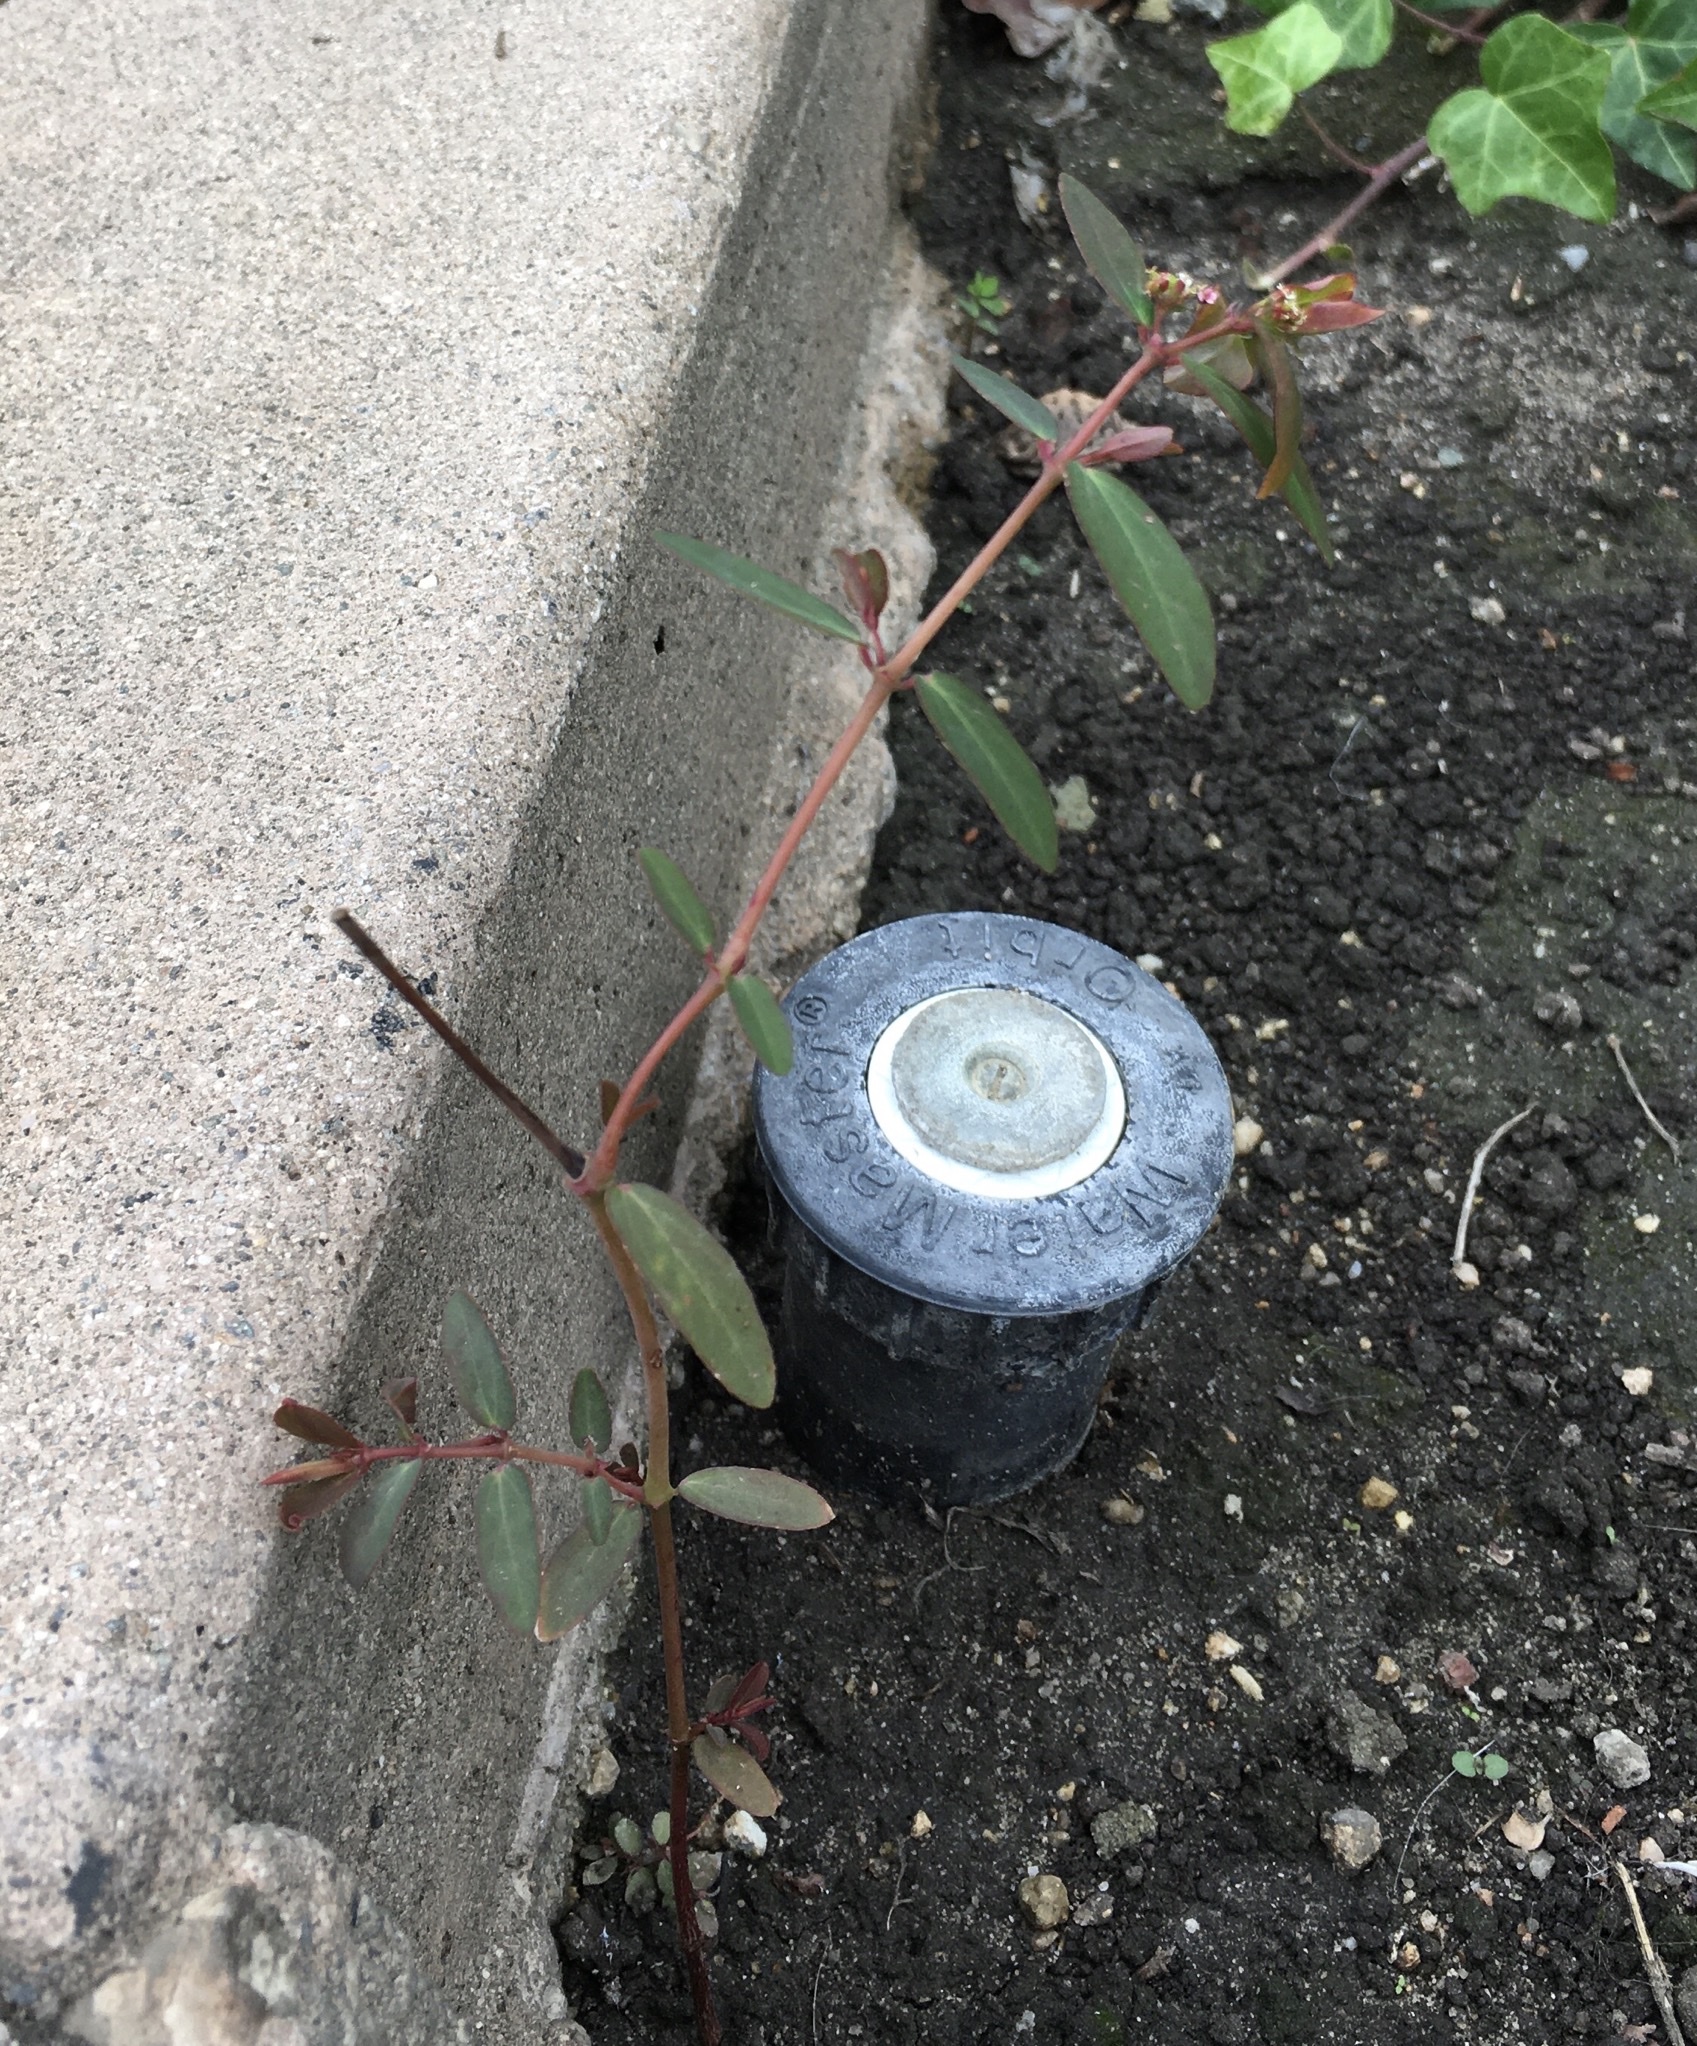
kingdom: Plantae
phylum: Tracheophyta
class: Magnoliopsida
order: Malpighiales
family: Euphorbiaceae
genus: Euphorbia
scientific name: Euphorbia hypericifolia
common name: Graceful sandmat
